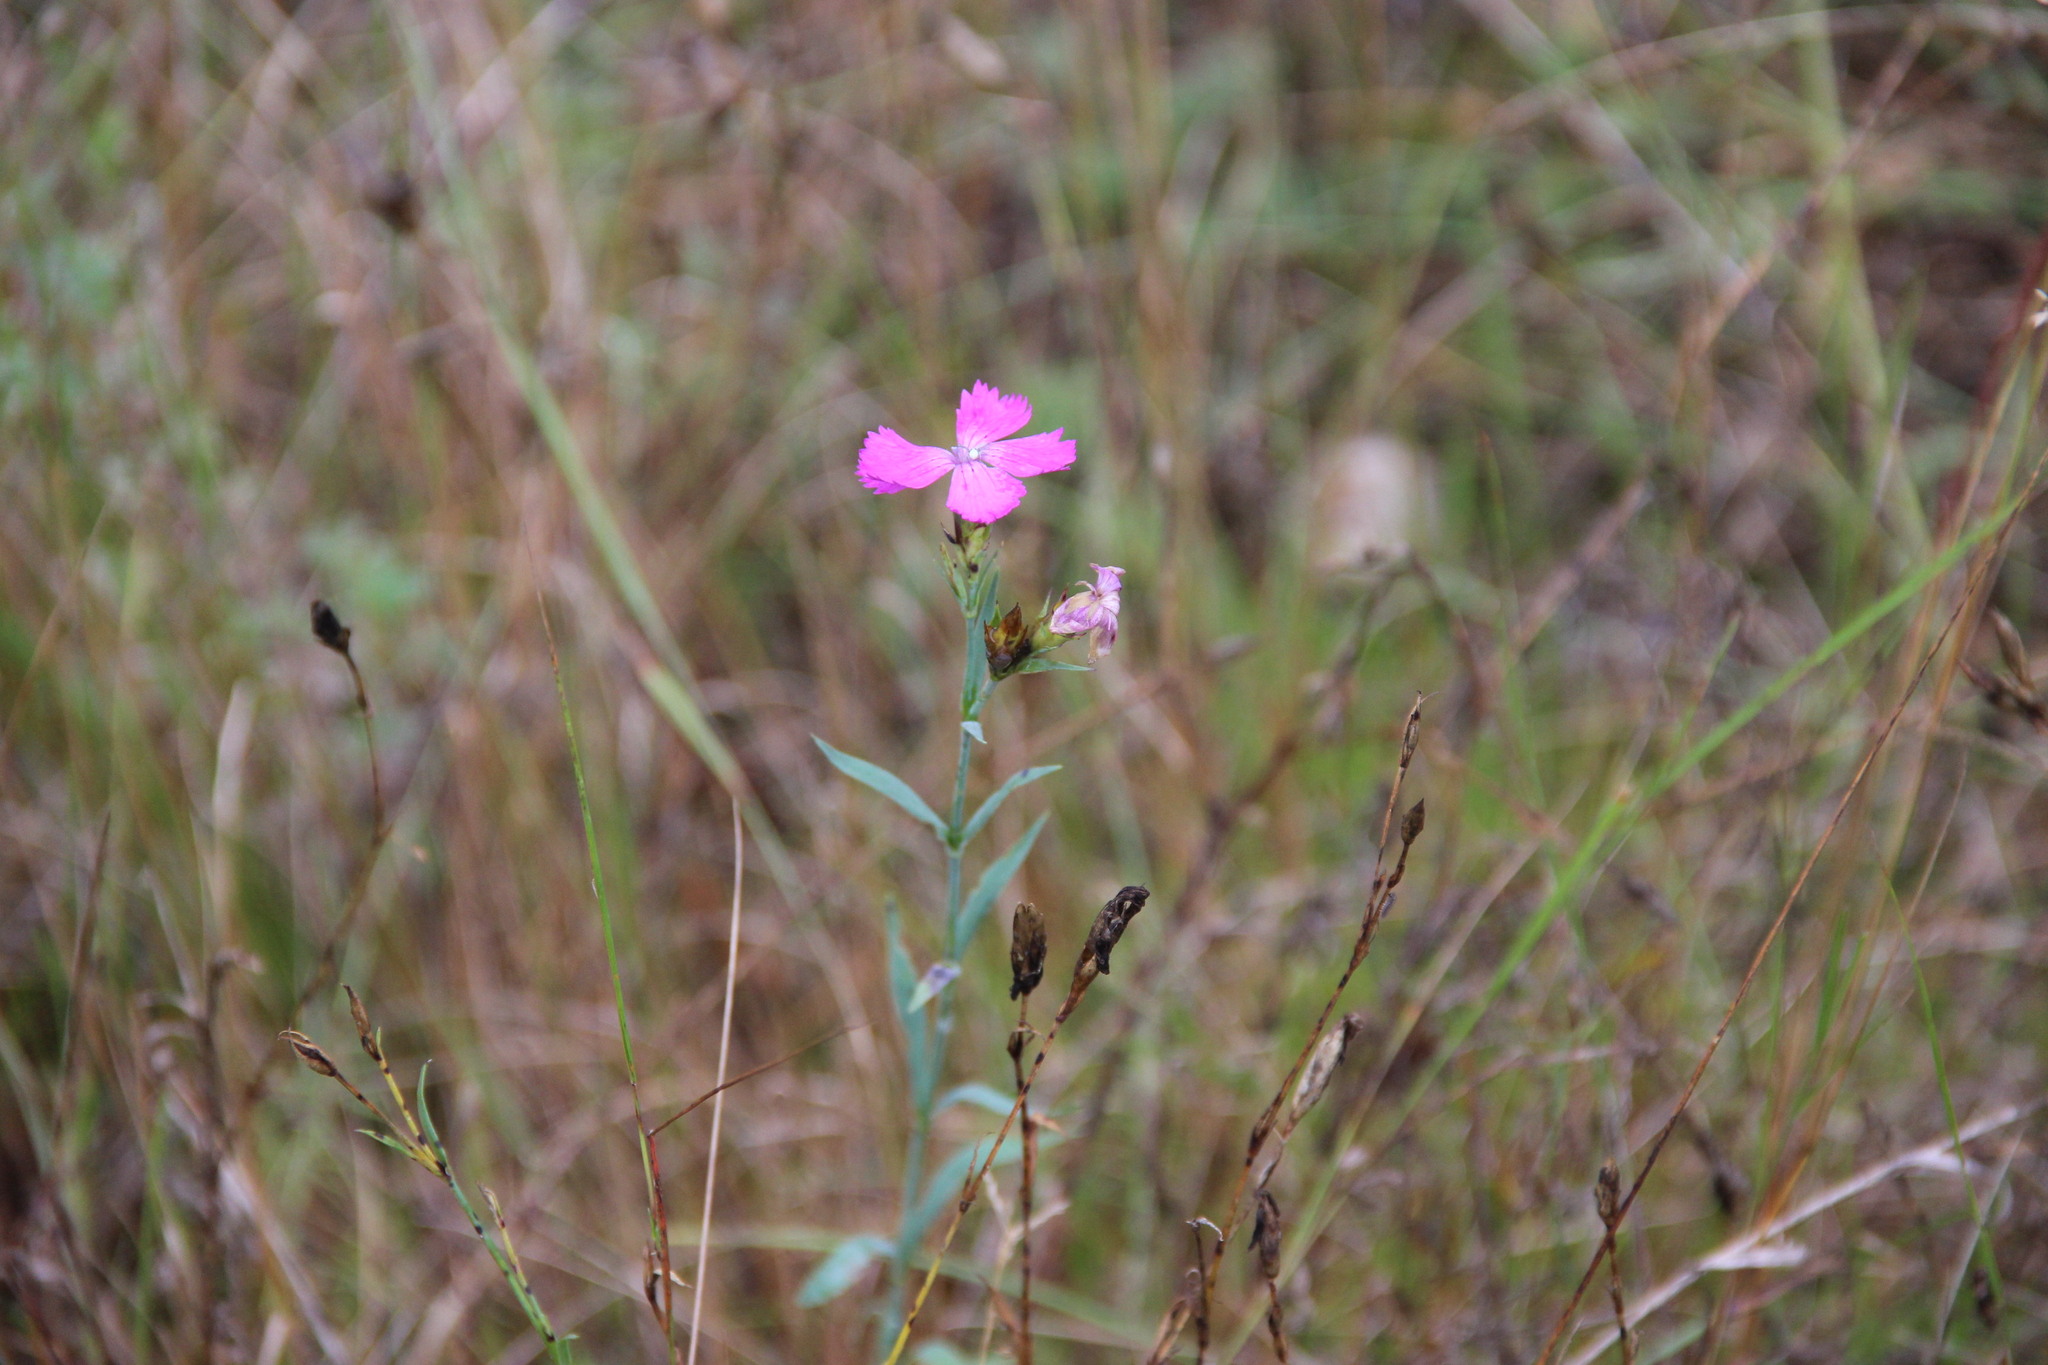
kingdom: Plantae
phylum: Tracheophyta
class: Magnoliopsida
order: Caryophyllales
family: Caryophyllaceae
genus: Dianthus
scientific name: Dianthus chinensis
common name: Rainbow pink
